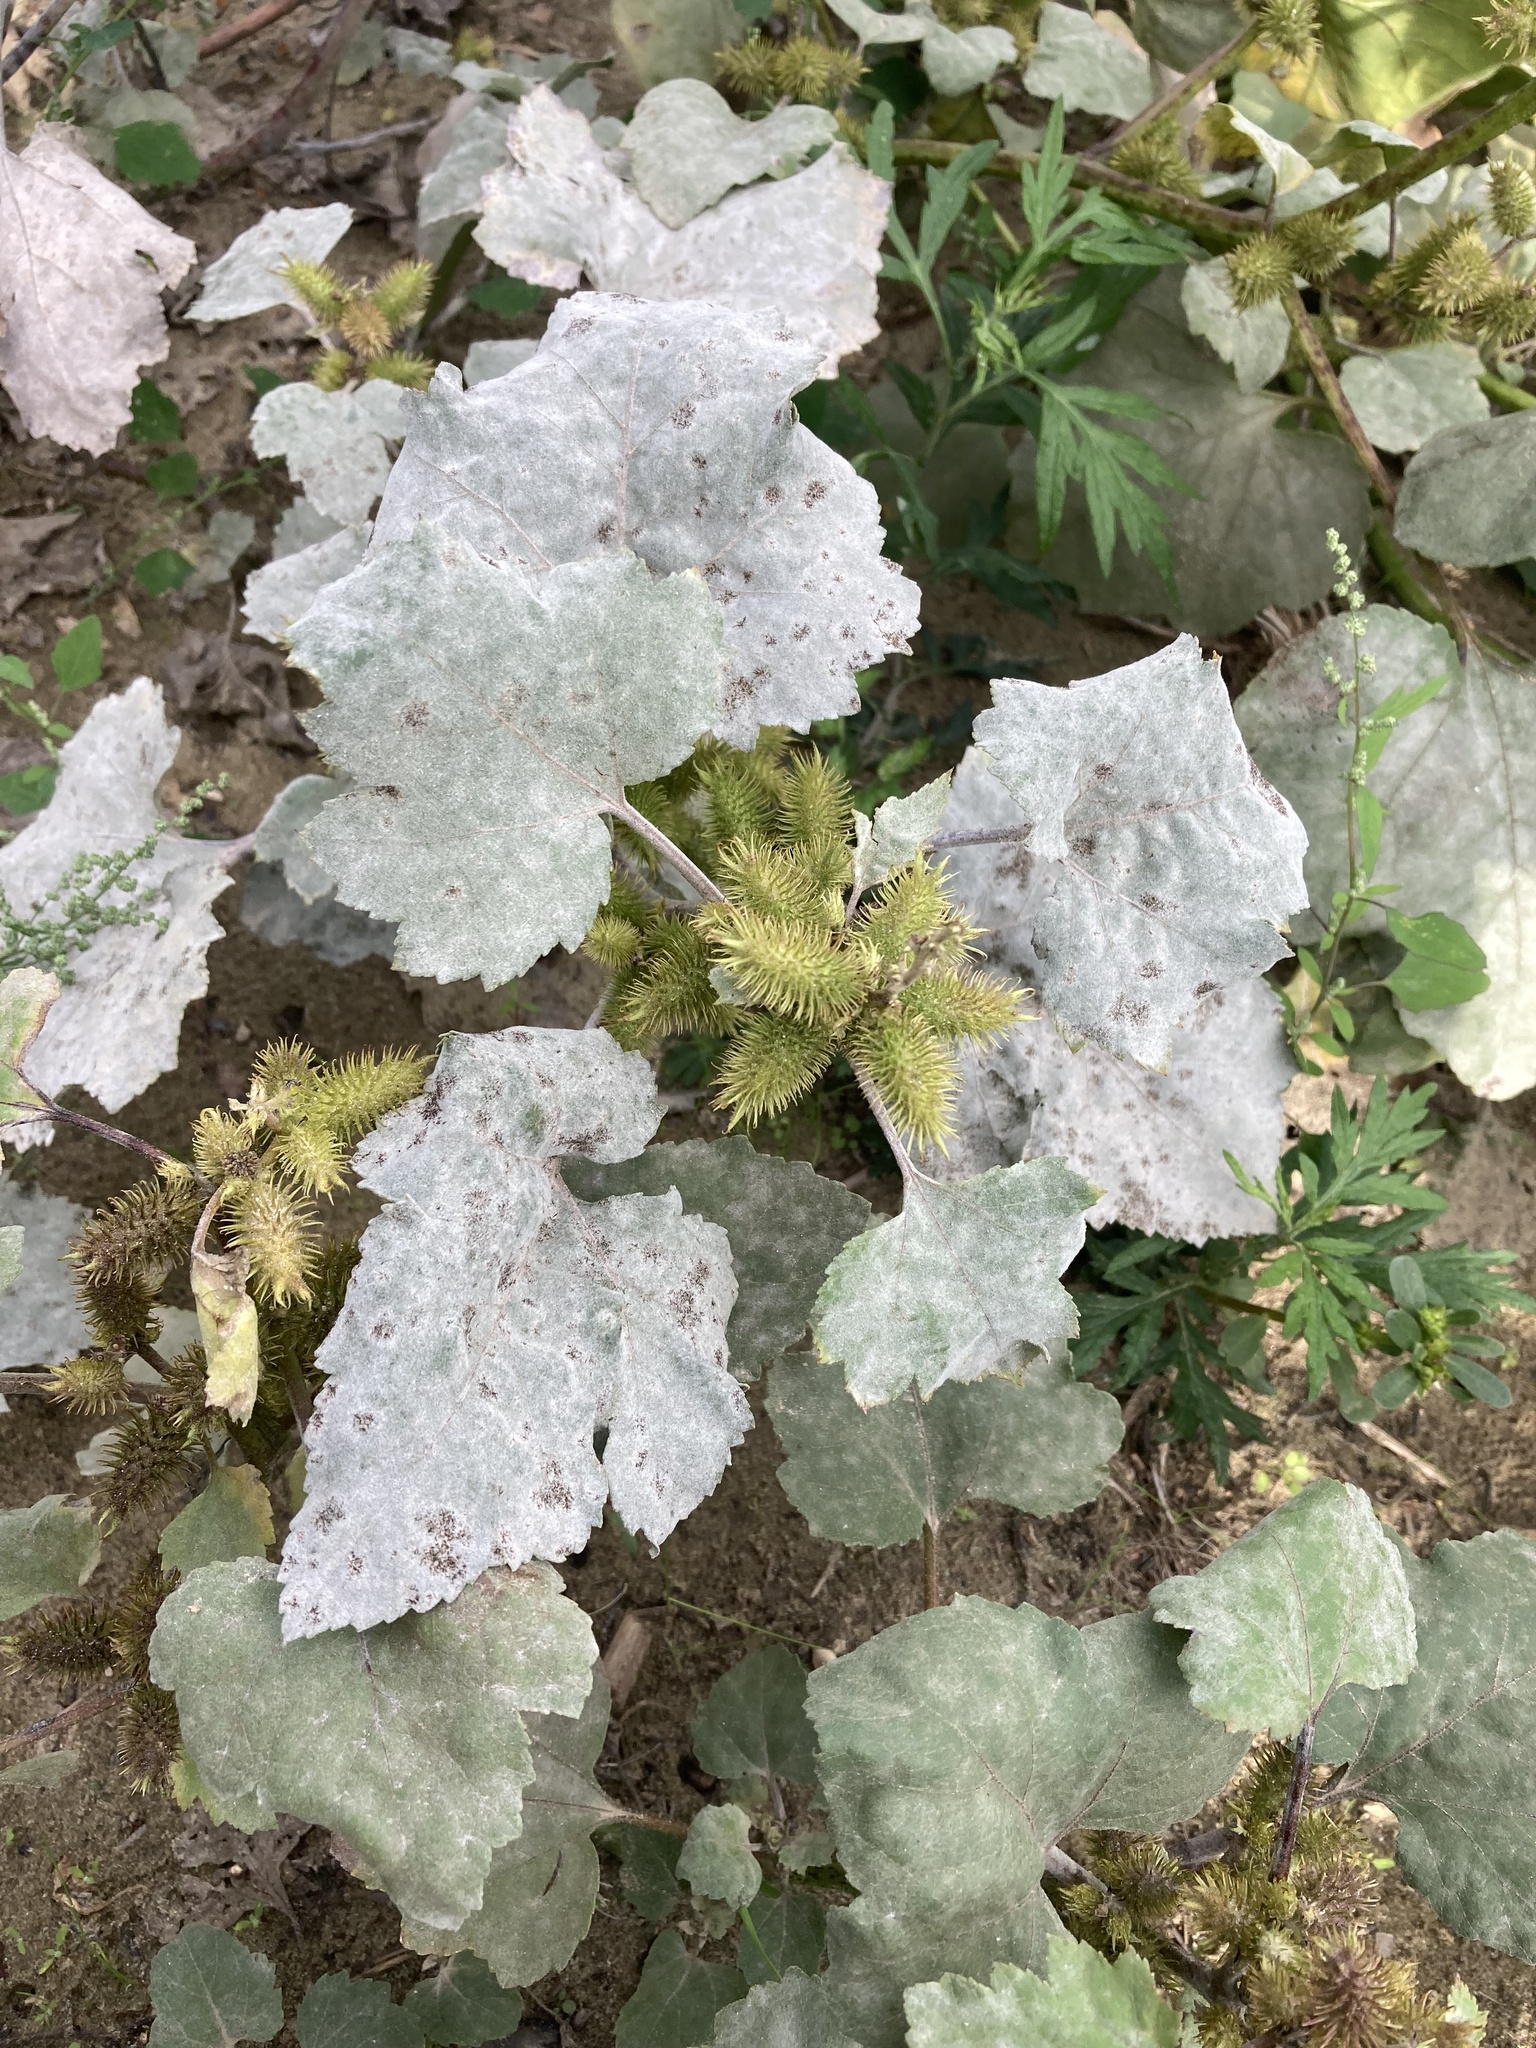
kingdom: Plantae
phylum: Tracheophyta
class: Magnoliopsida
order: Asterales
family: Asteraceae
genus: Xanthium
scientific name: Xanthium orientale
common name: Californian burr
